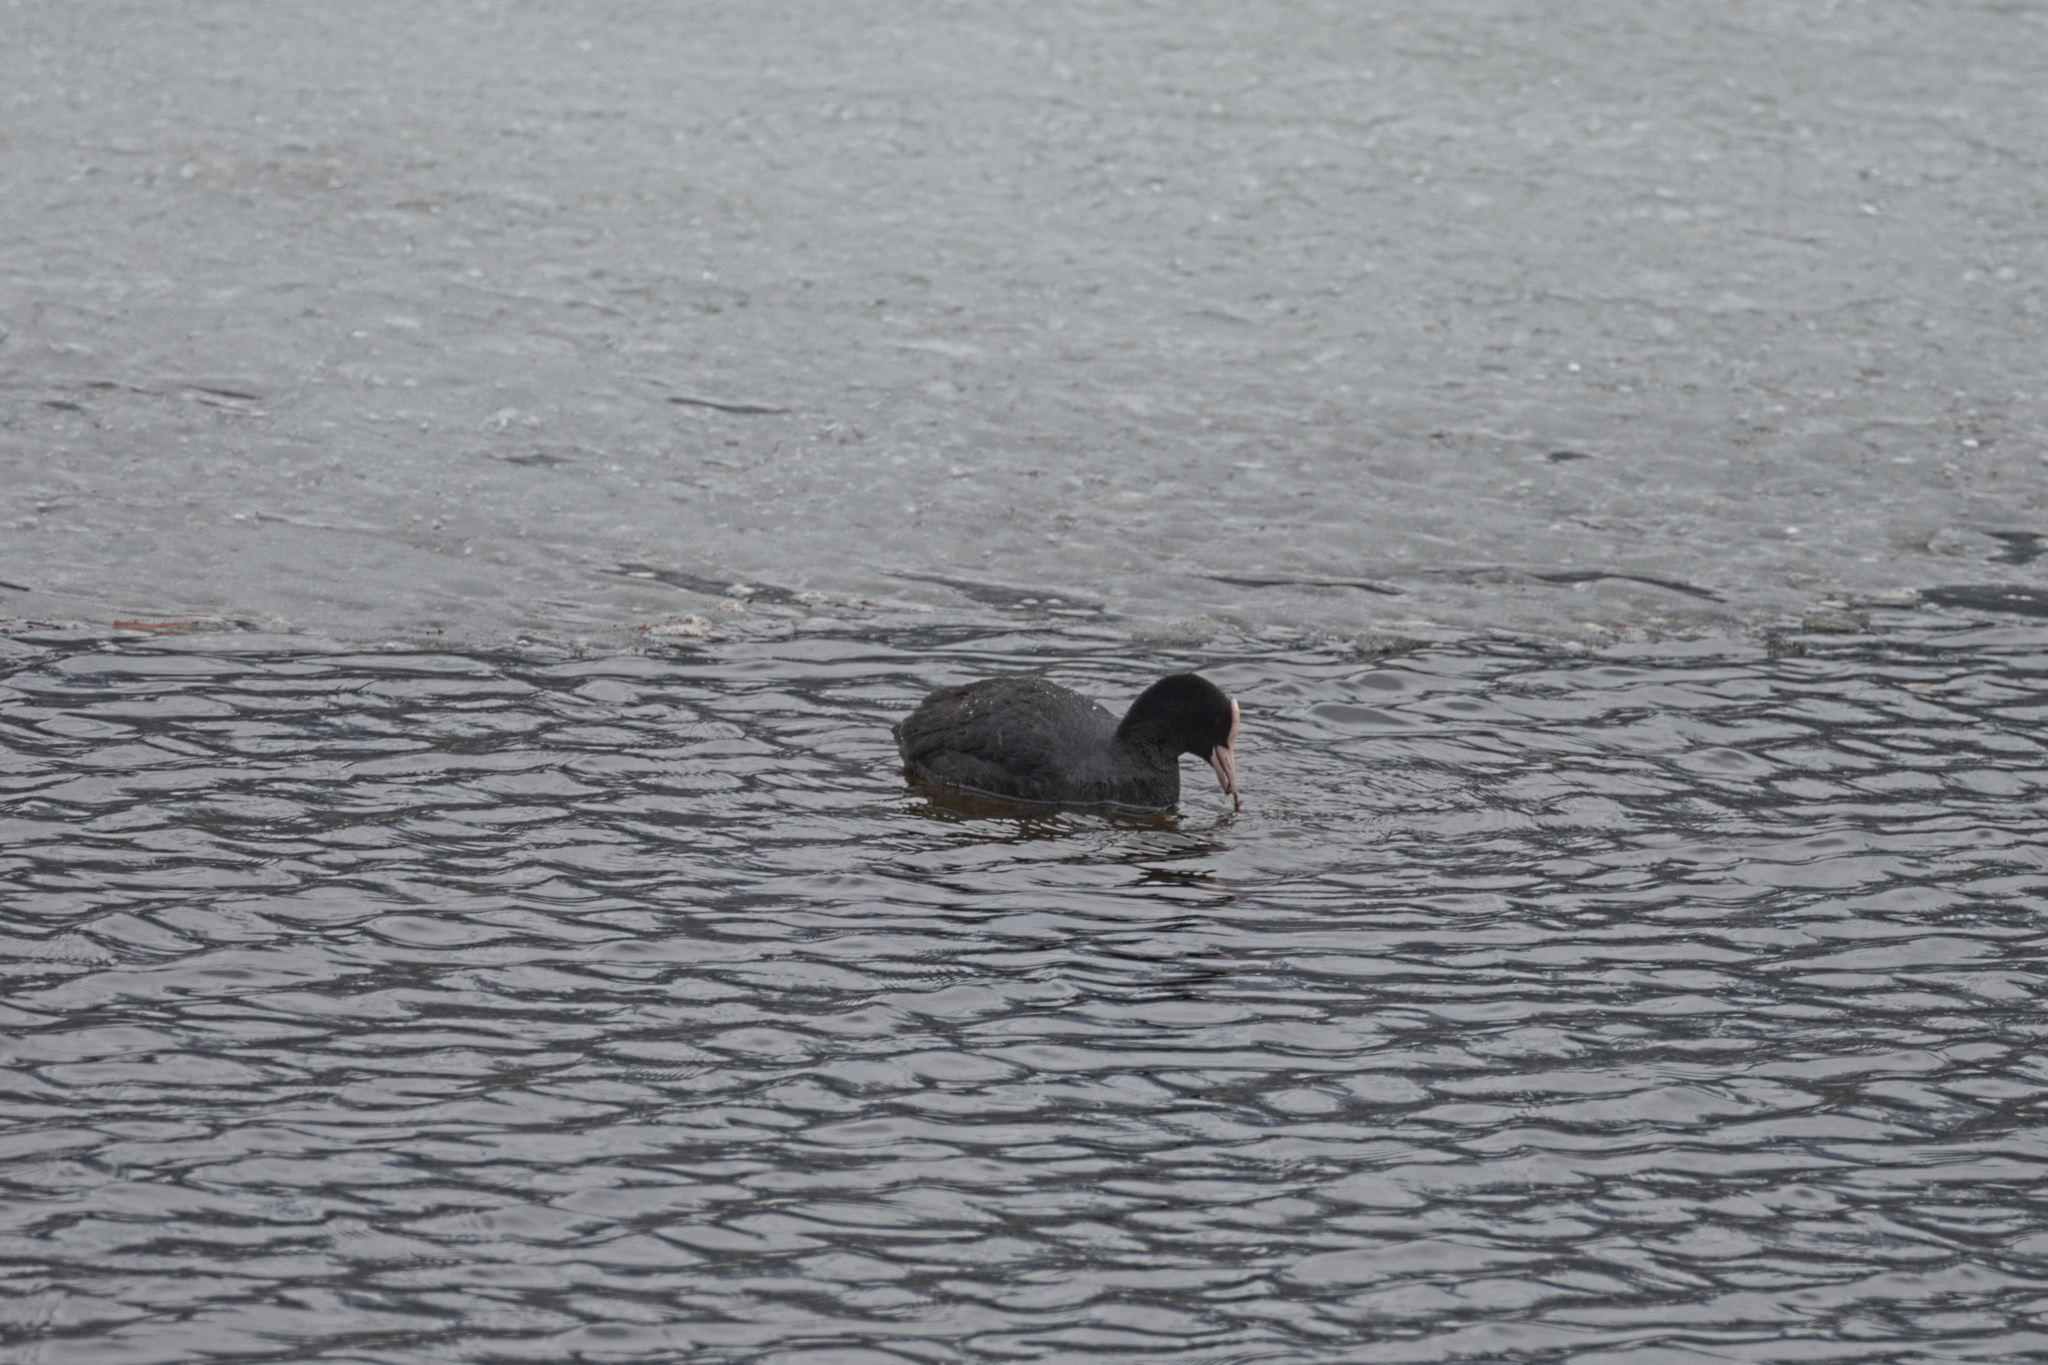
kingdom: Animalia
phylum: Chordata
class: Aves
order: Gruiformes
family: Rallidae
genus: Fulica
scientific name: Fulica atra
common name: Eurasian coot
